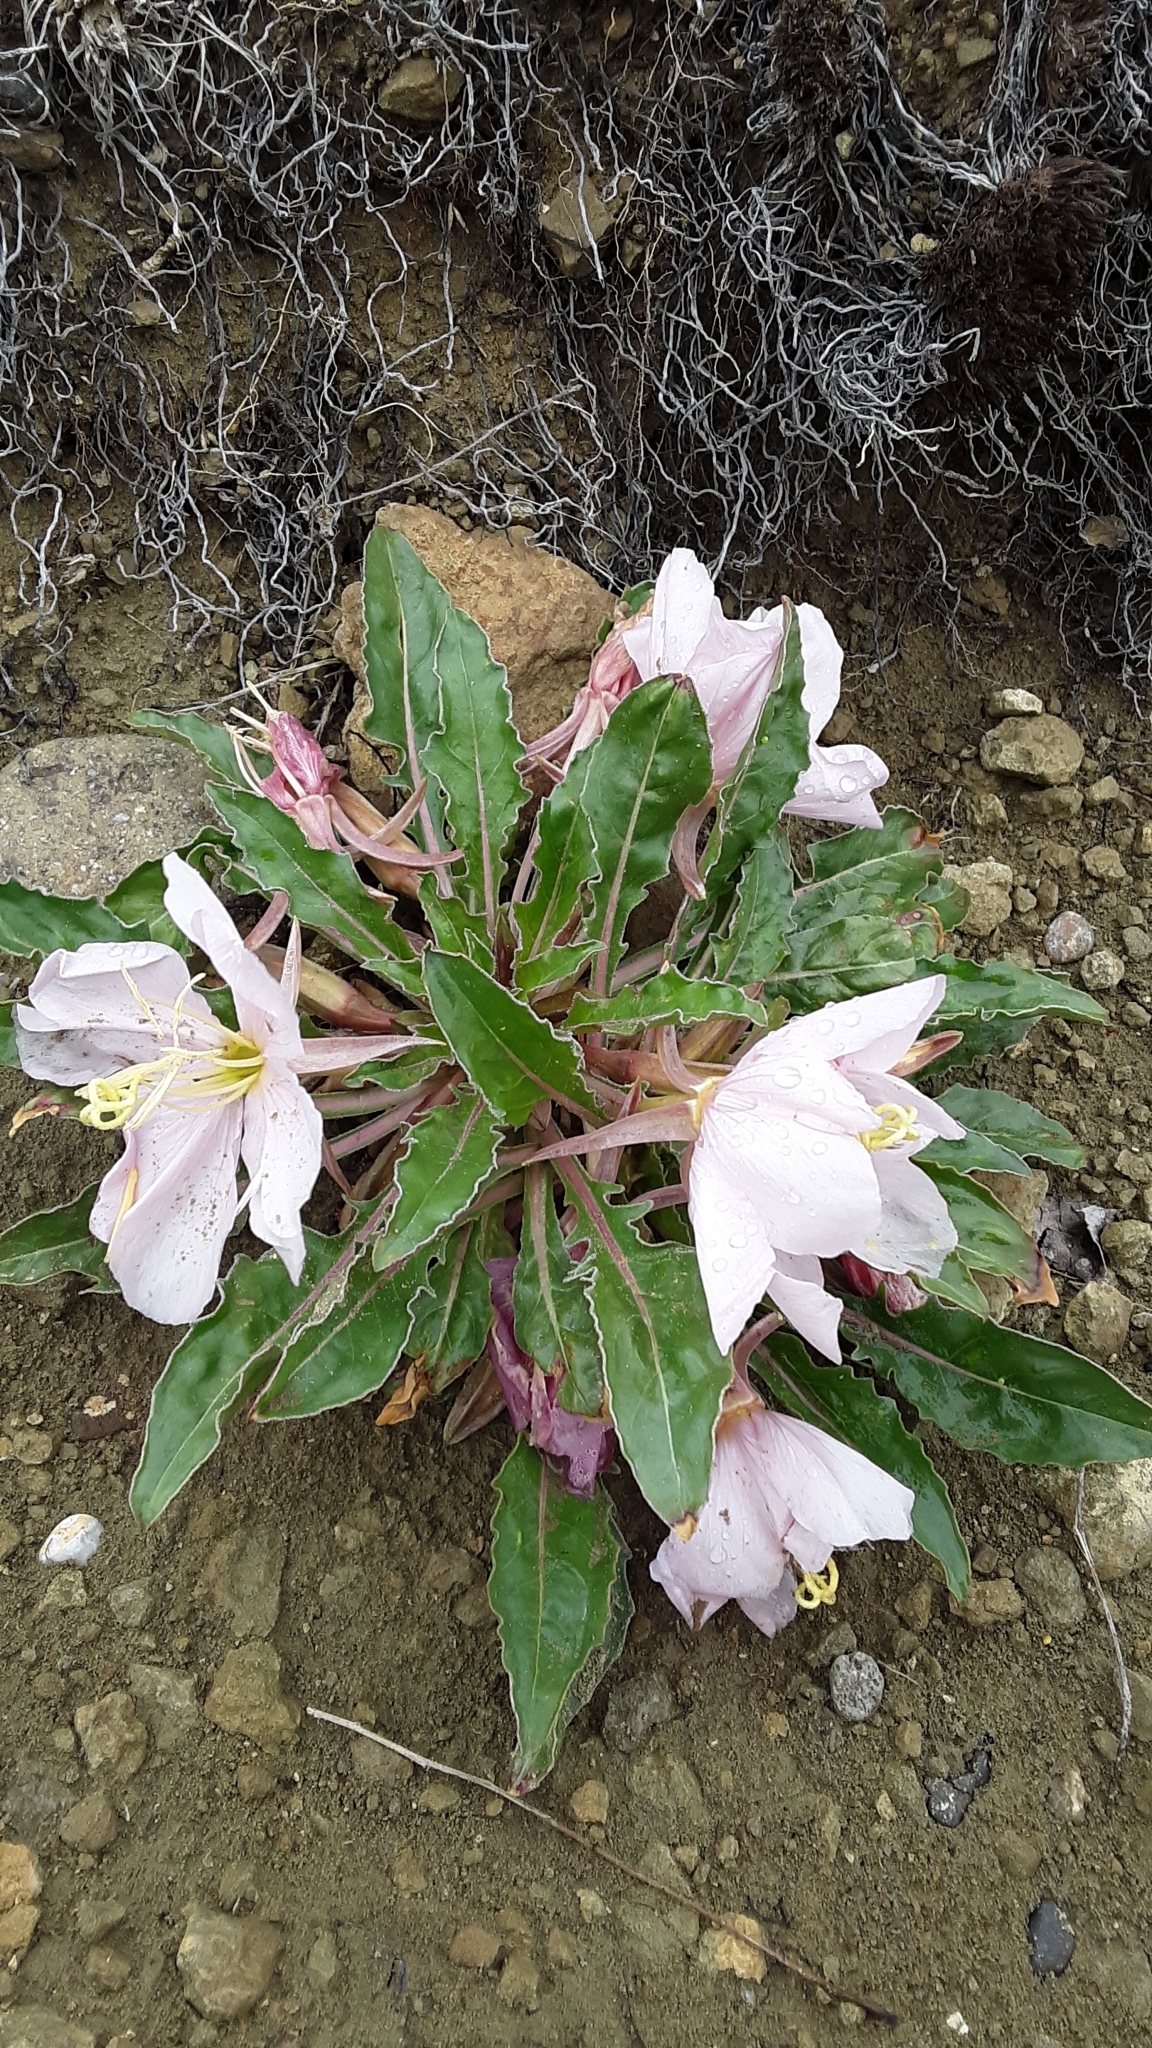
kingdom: Plantae
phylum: Tracheophyta
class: Magnoliopsida
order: Myrtales
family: Onagraceae
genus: Oenothera
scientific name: Oenothera cespitosa
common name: Tufted evening-primrose
